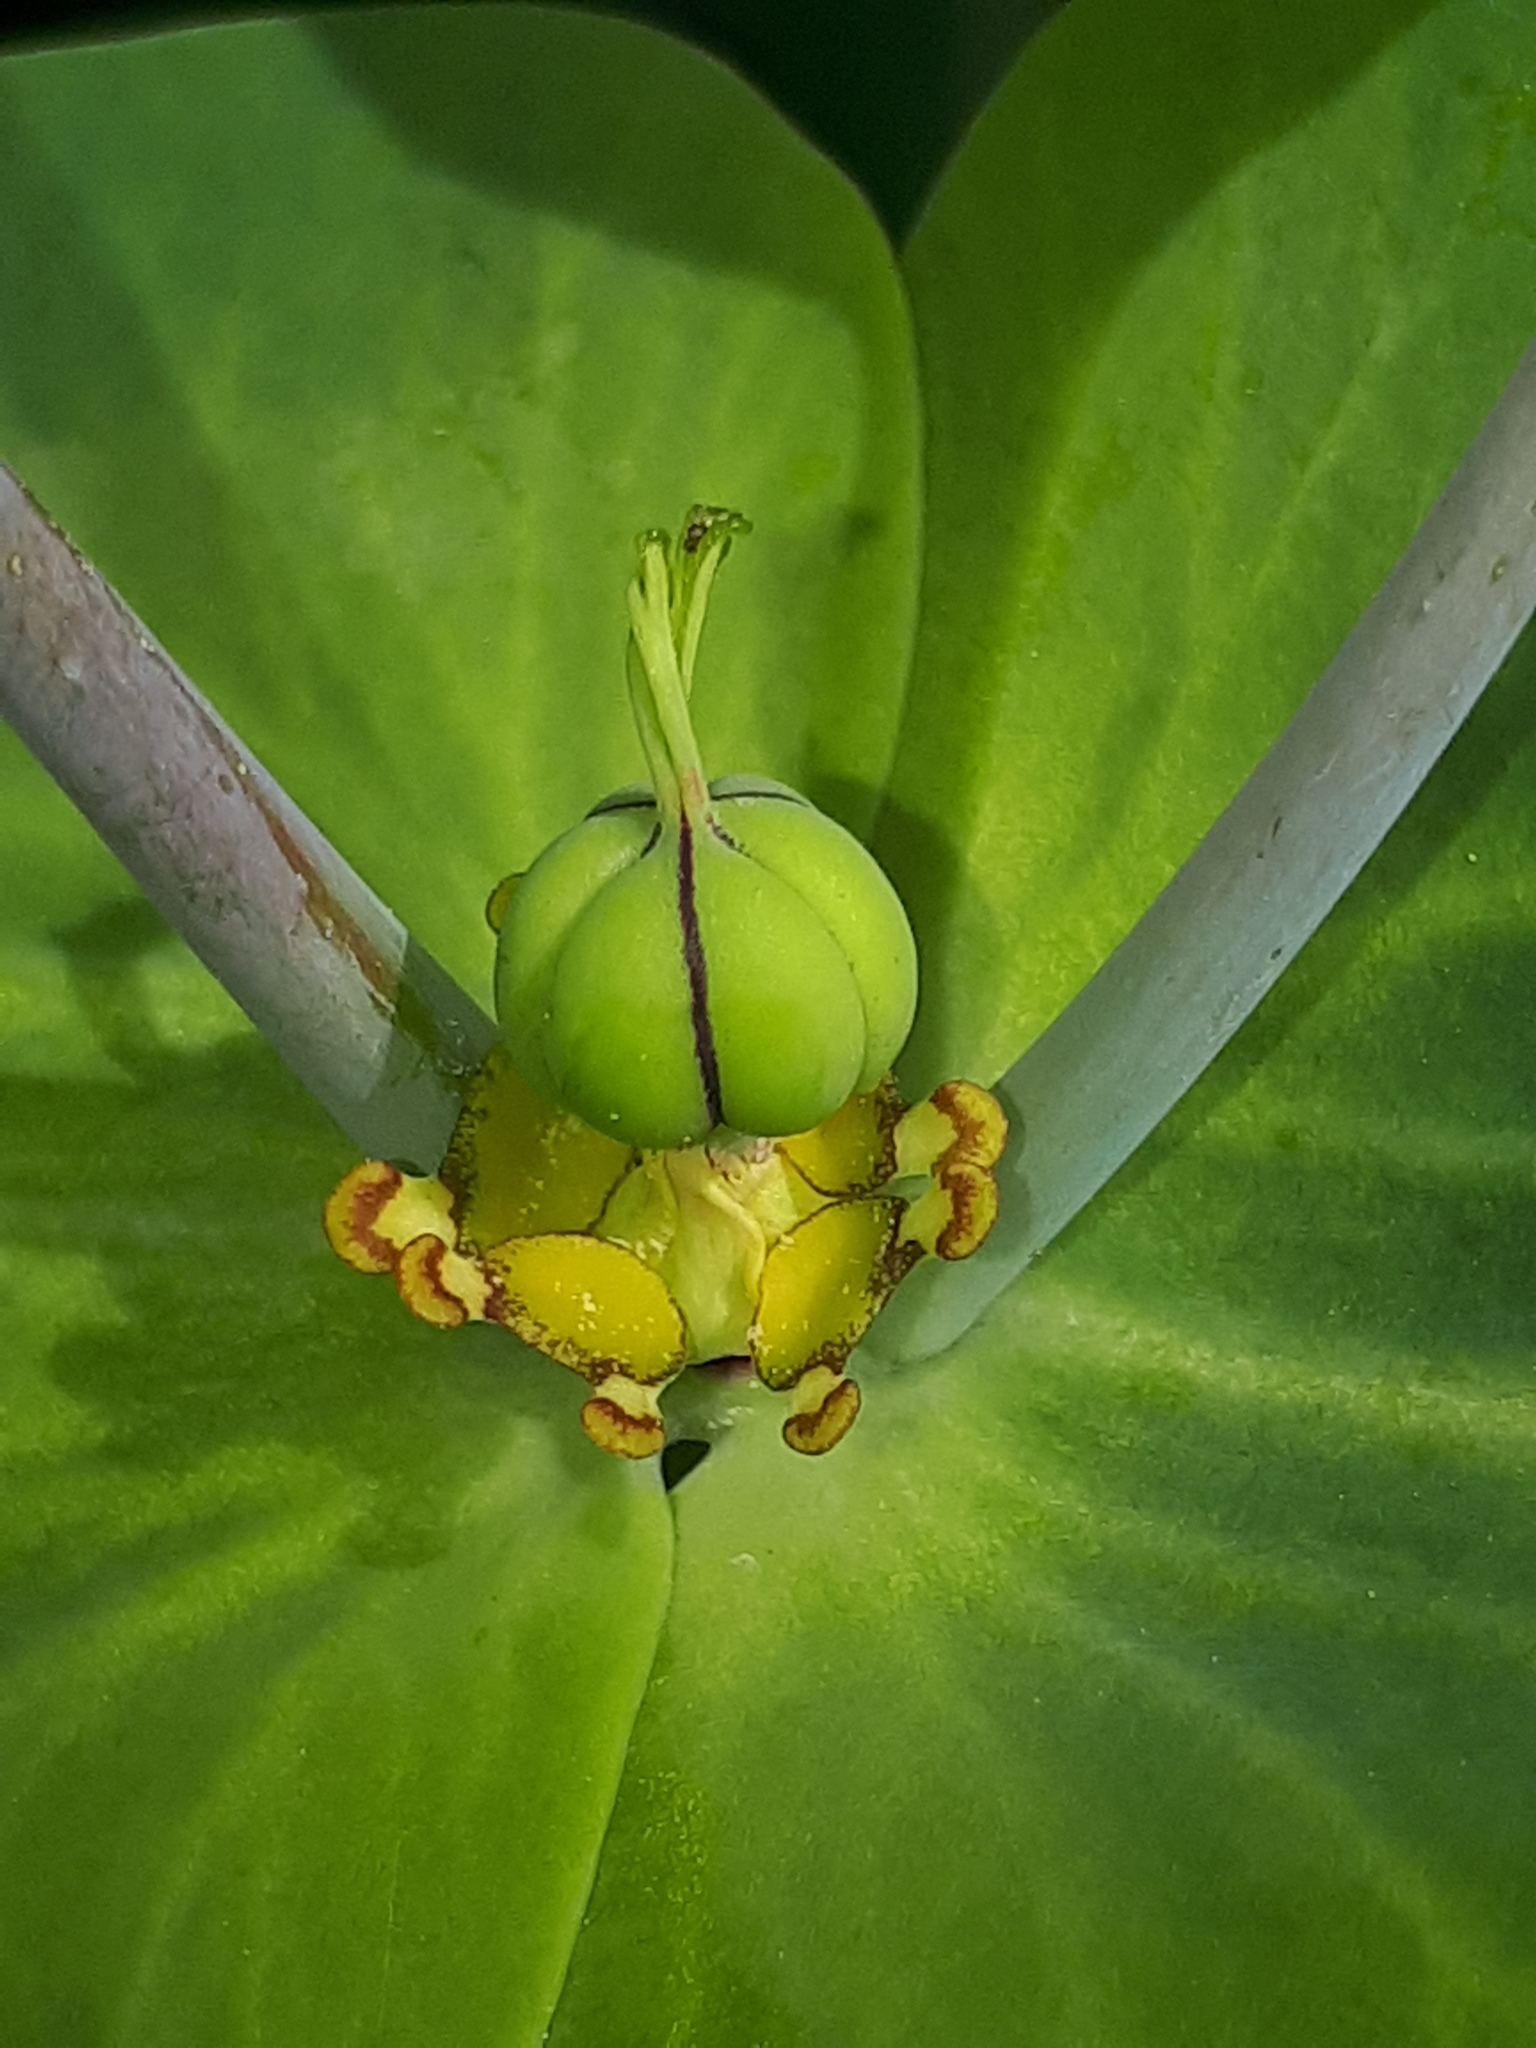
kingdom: Plantae
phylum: Tracheophyta
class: Magnoliopsida
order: Malpighiales
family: Euphorbiaceae
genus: Euphorbia
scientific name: Euphorbia lathyris
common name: Caper spurge
